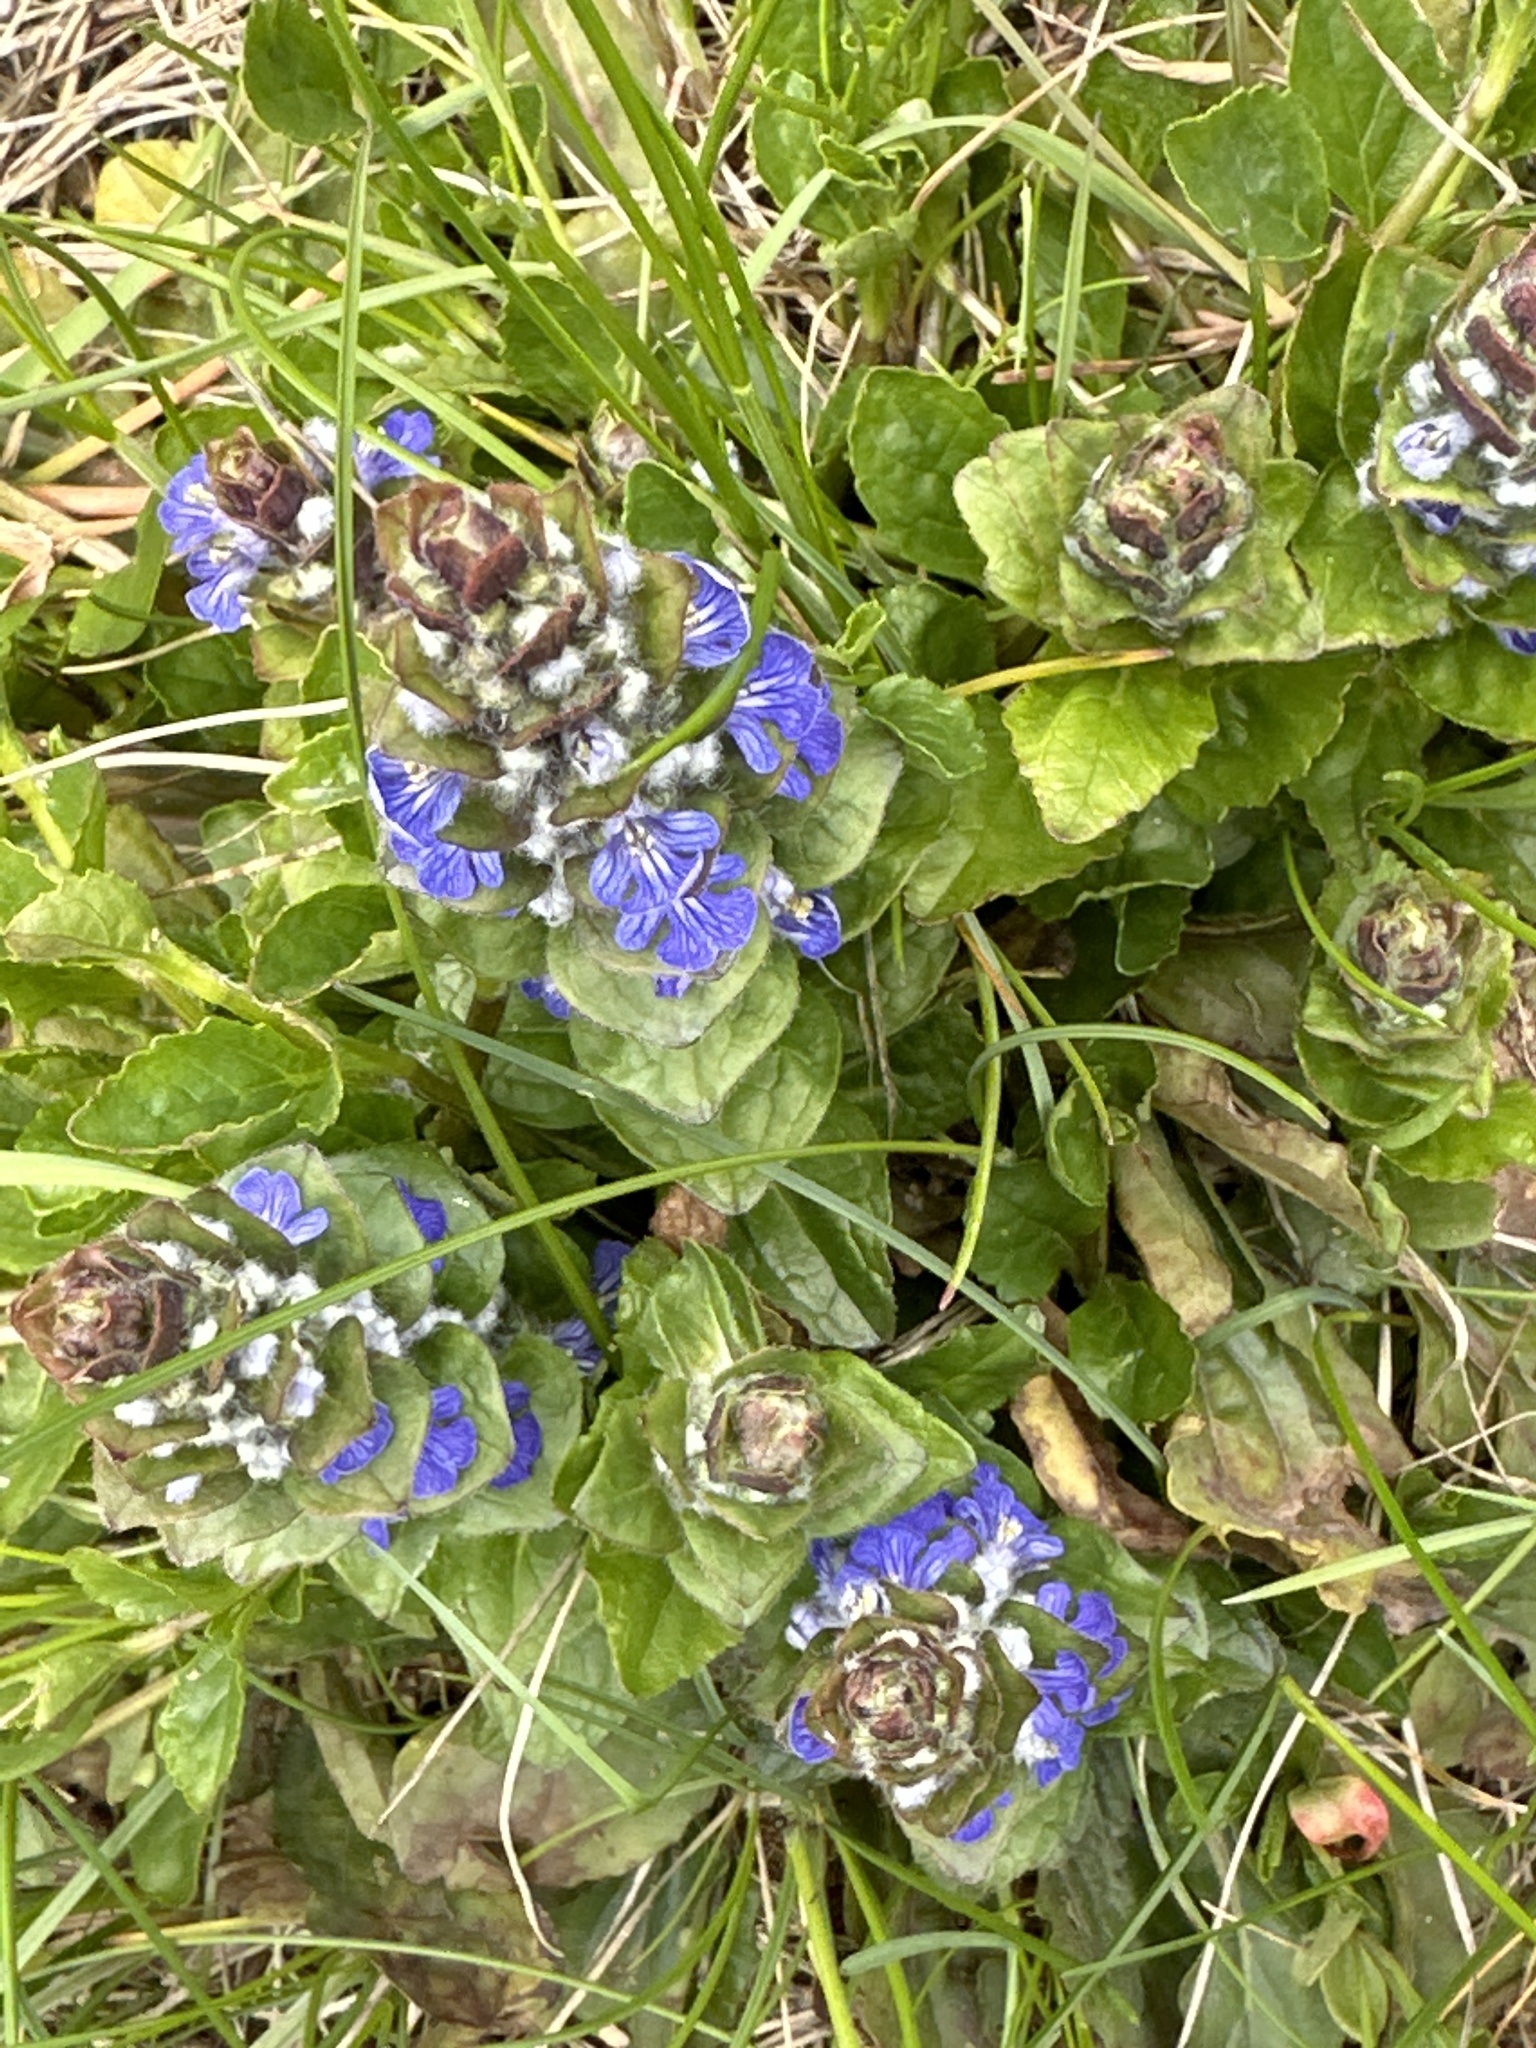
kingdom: Plantae
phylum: Tracheophyta
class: Magnoliopsida
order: Lamiales
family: Lamiaceae
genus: Ajuga
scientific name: Ajuga reptans
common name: Bugle
